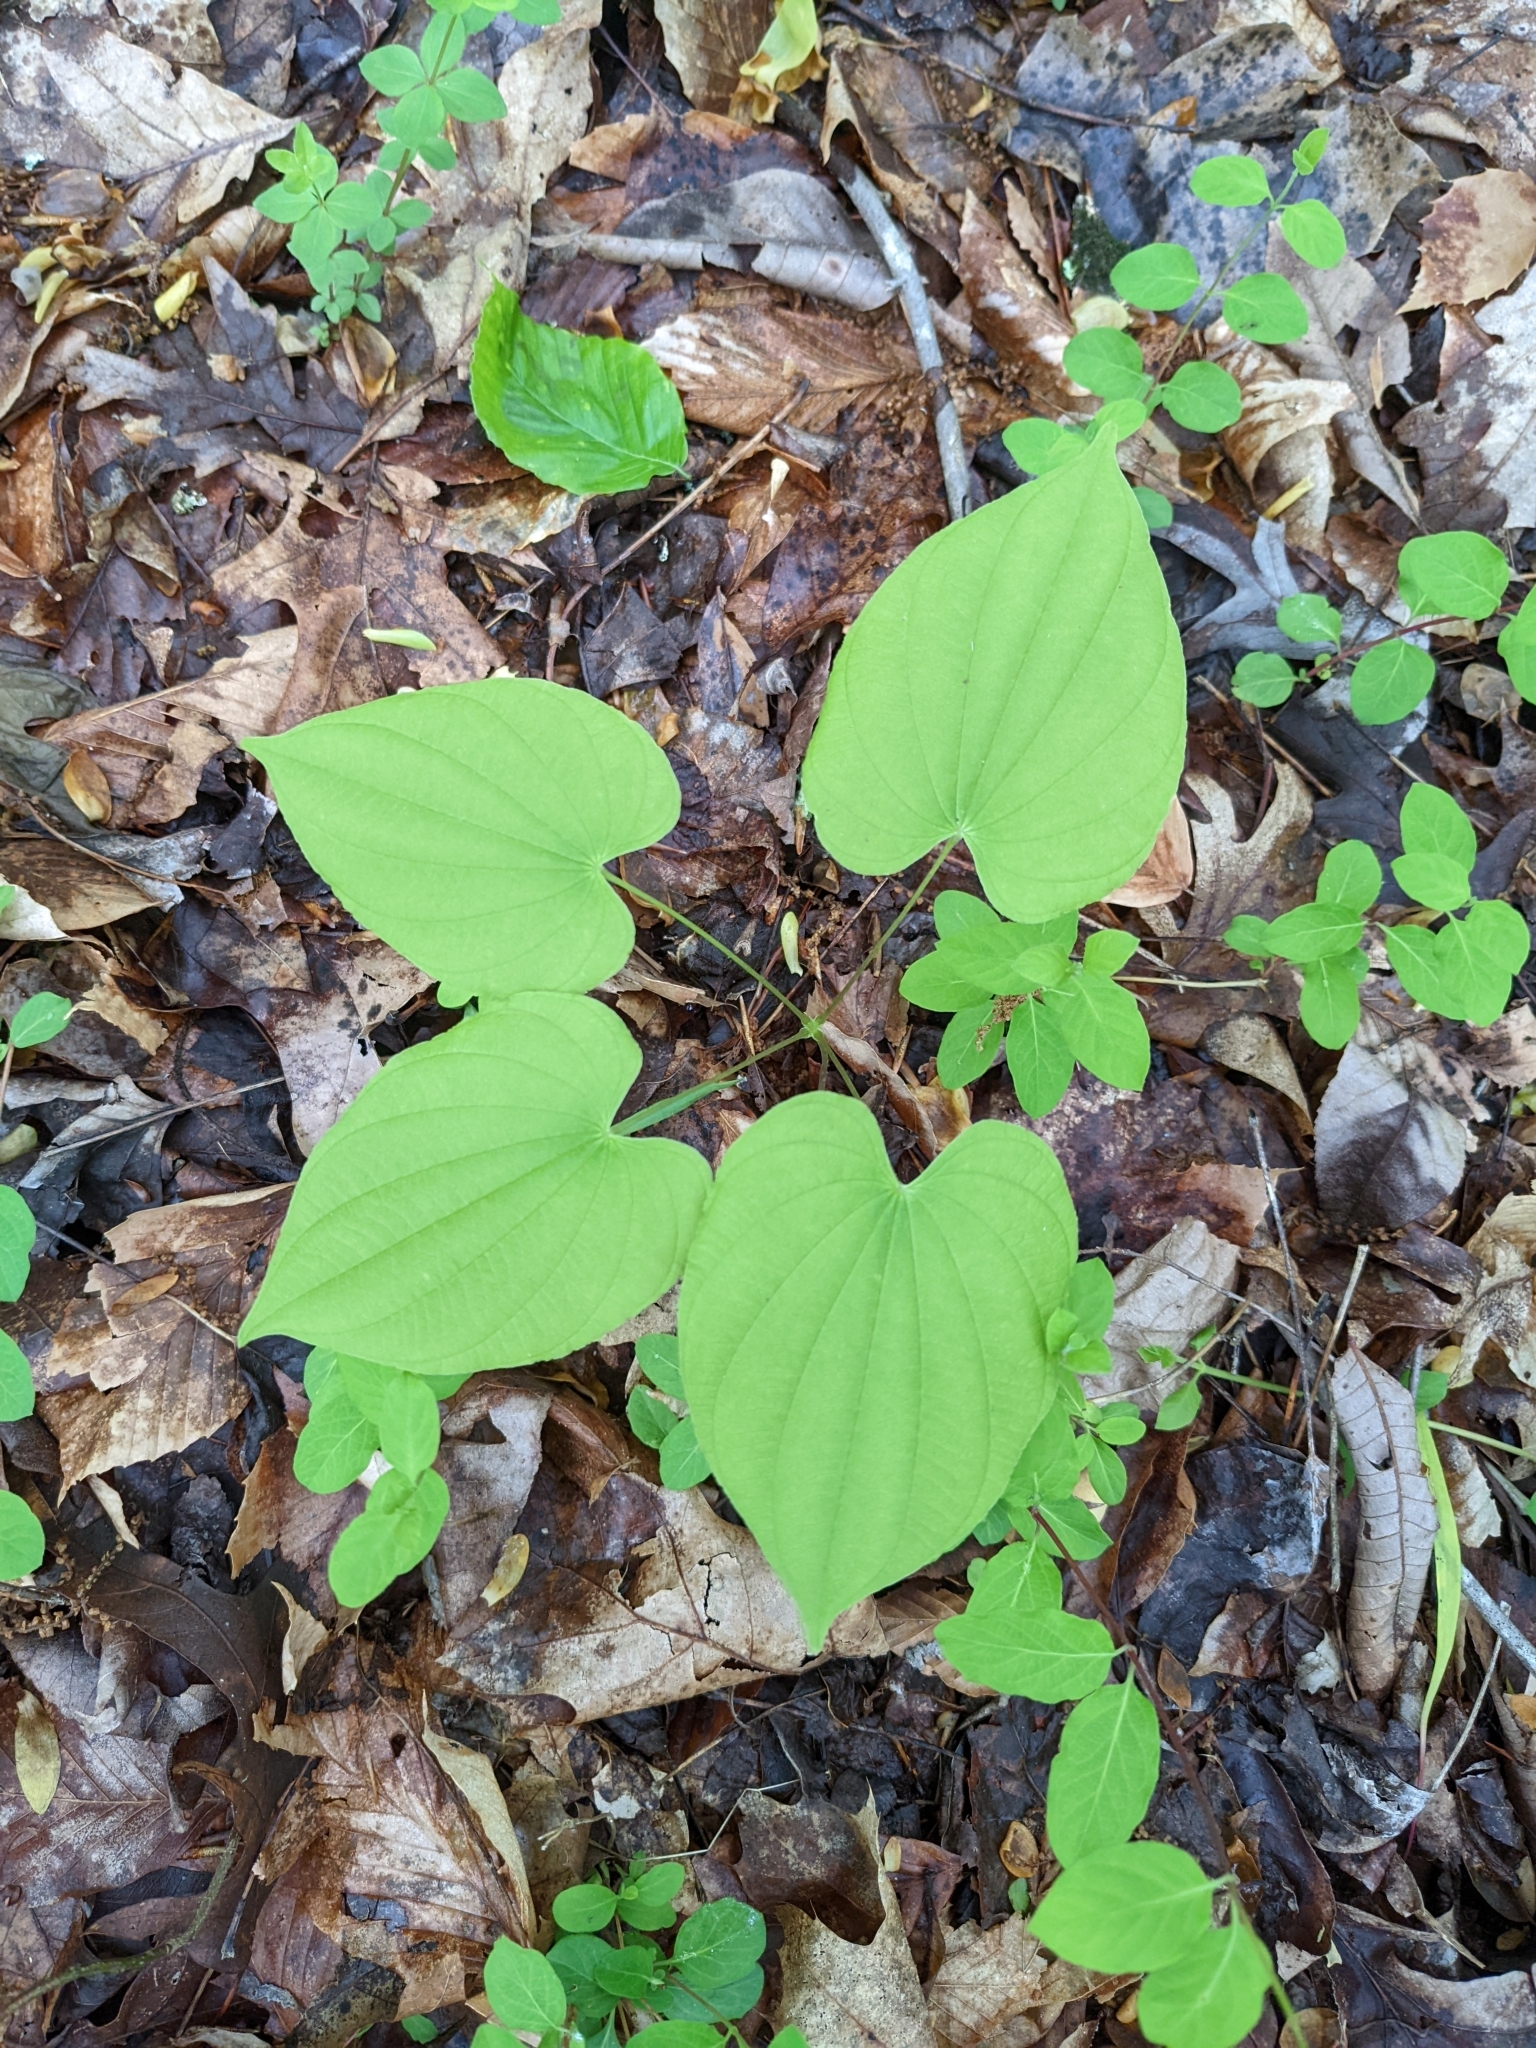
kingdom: Plantae
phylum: Tracheophyta
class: Liliopsida
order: Dioscoreales
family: Dioscoreaceae
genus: Dioscorea
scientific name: Dioscorea villosa
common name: Wild yam
